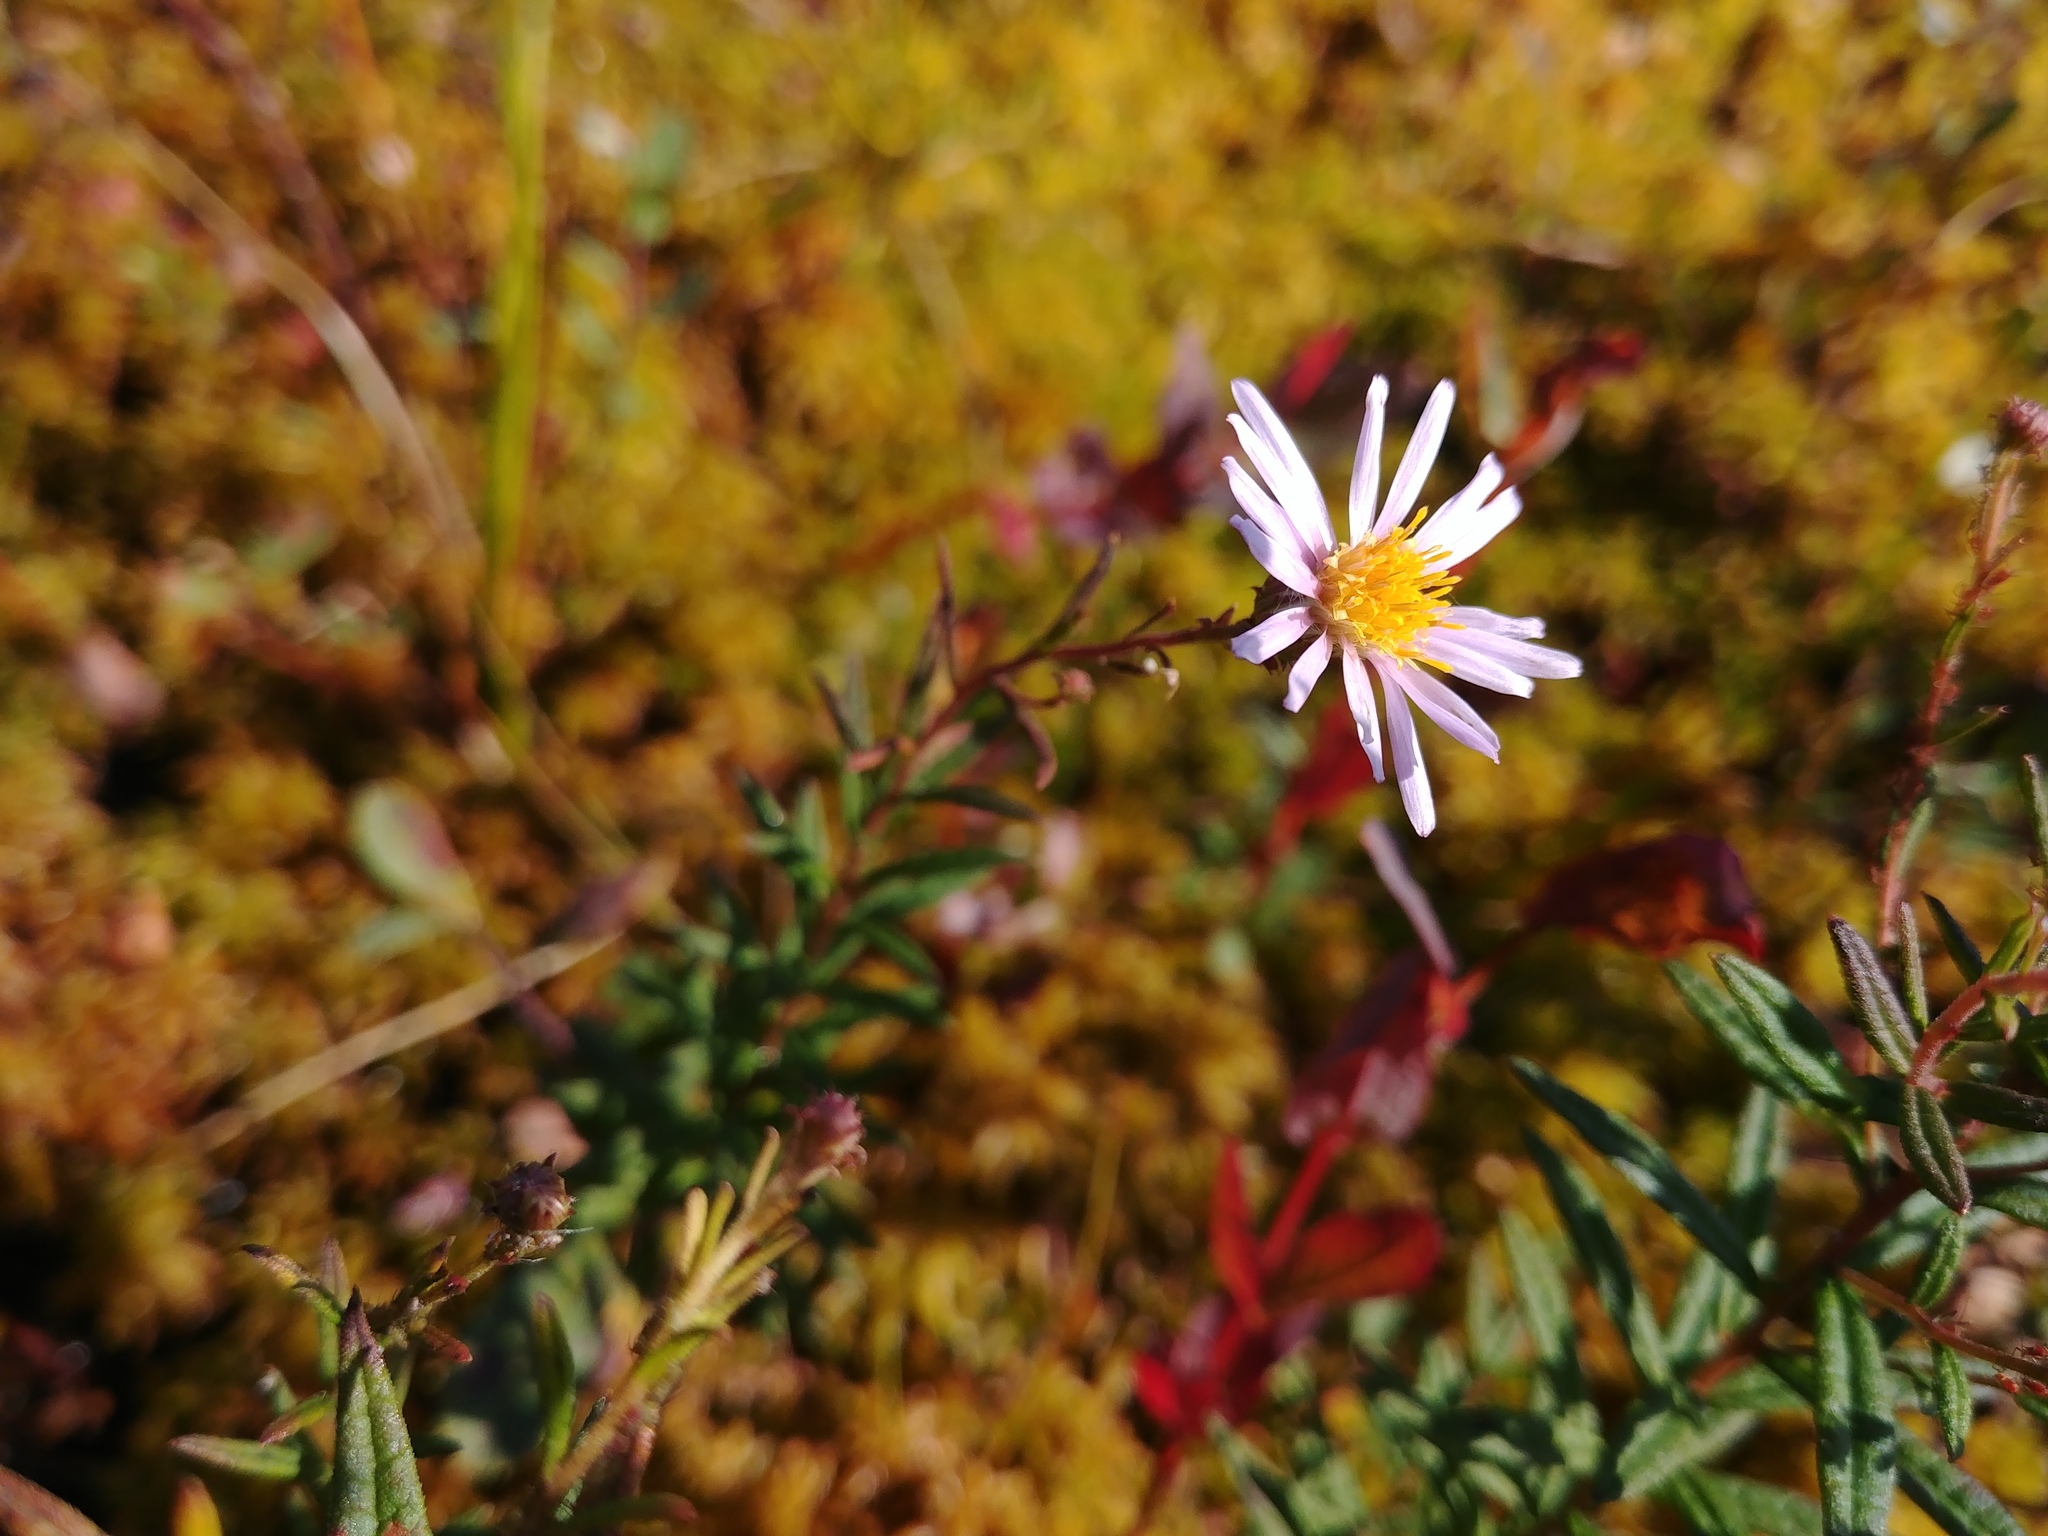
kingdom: Plantae
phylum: Tracheophyta
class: Magnoliopsida
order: Asterales
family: Asteraceae
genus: Oclemena
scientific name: Oclemena nemoralis
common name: Bog aster
